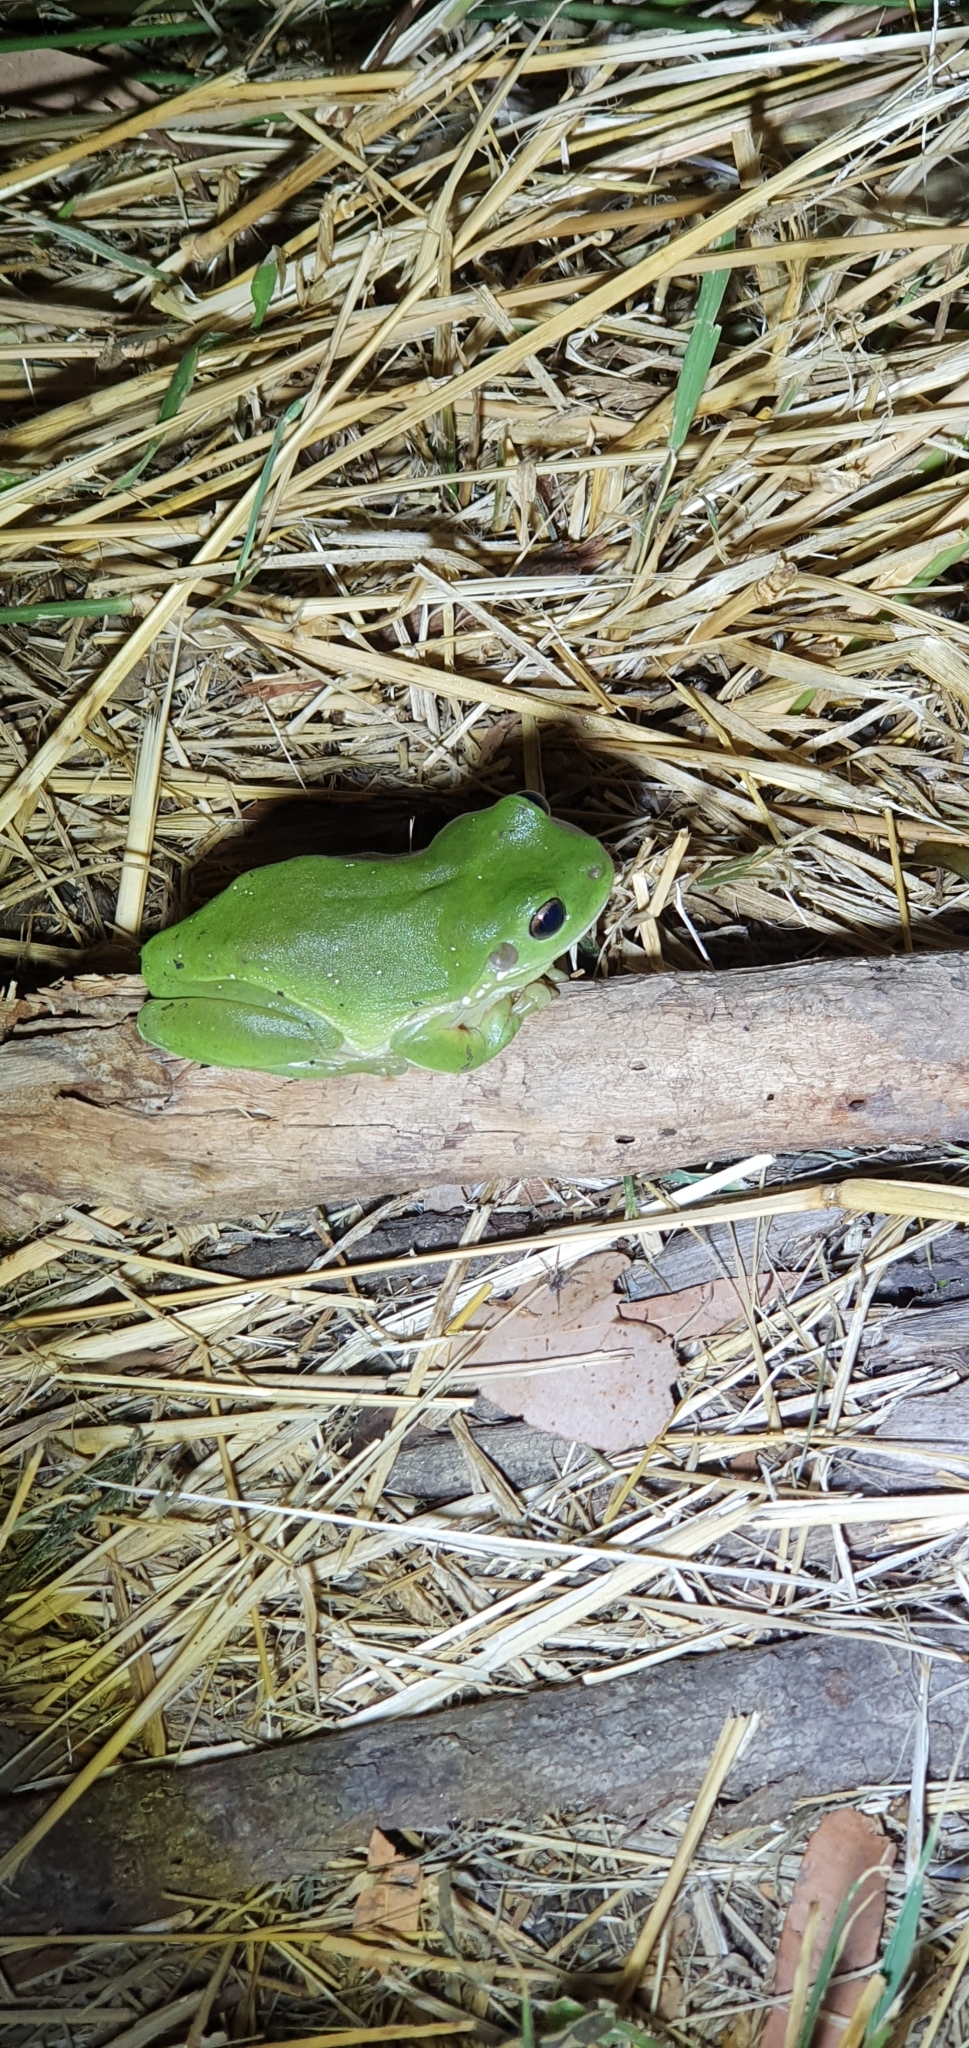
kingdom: Animalia
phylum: Chordata
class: Amphibia
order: Anura
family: Pelodryadidae
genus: Ranoidea
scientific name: Ranoidea caerulea
